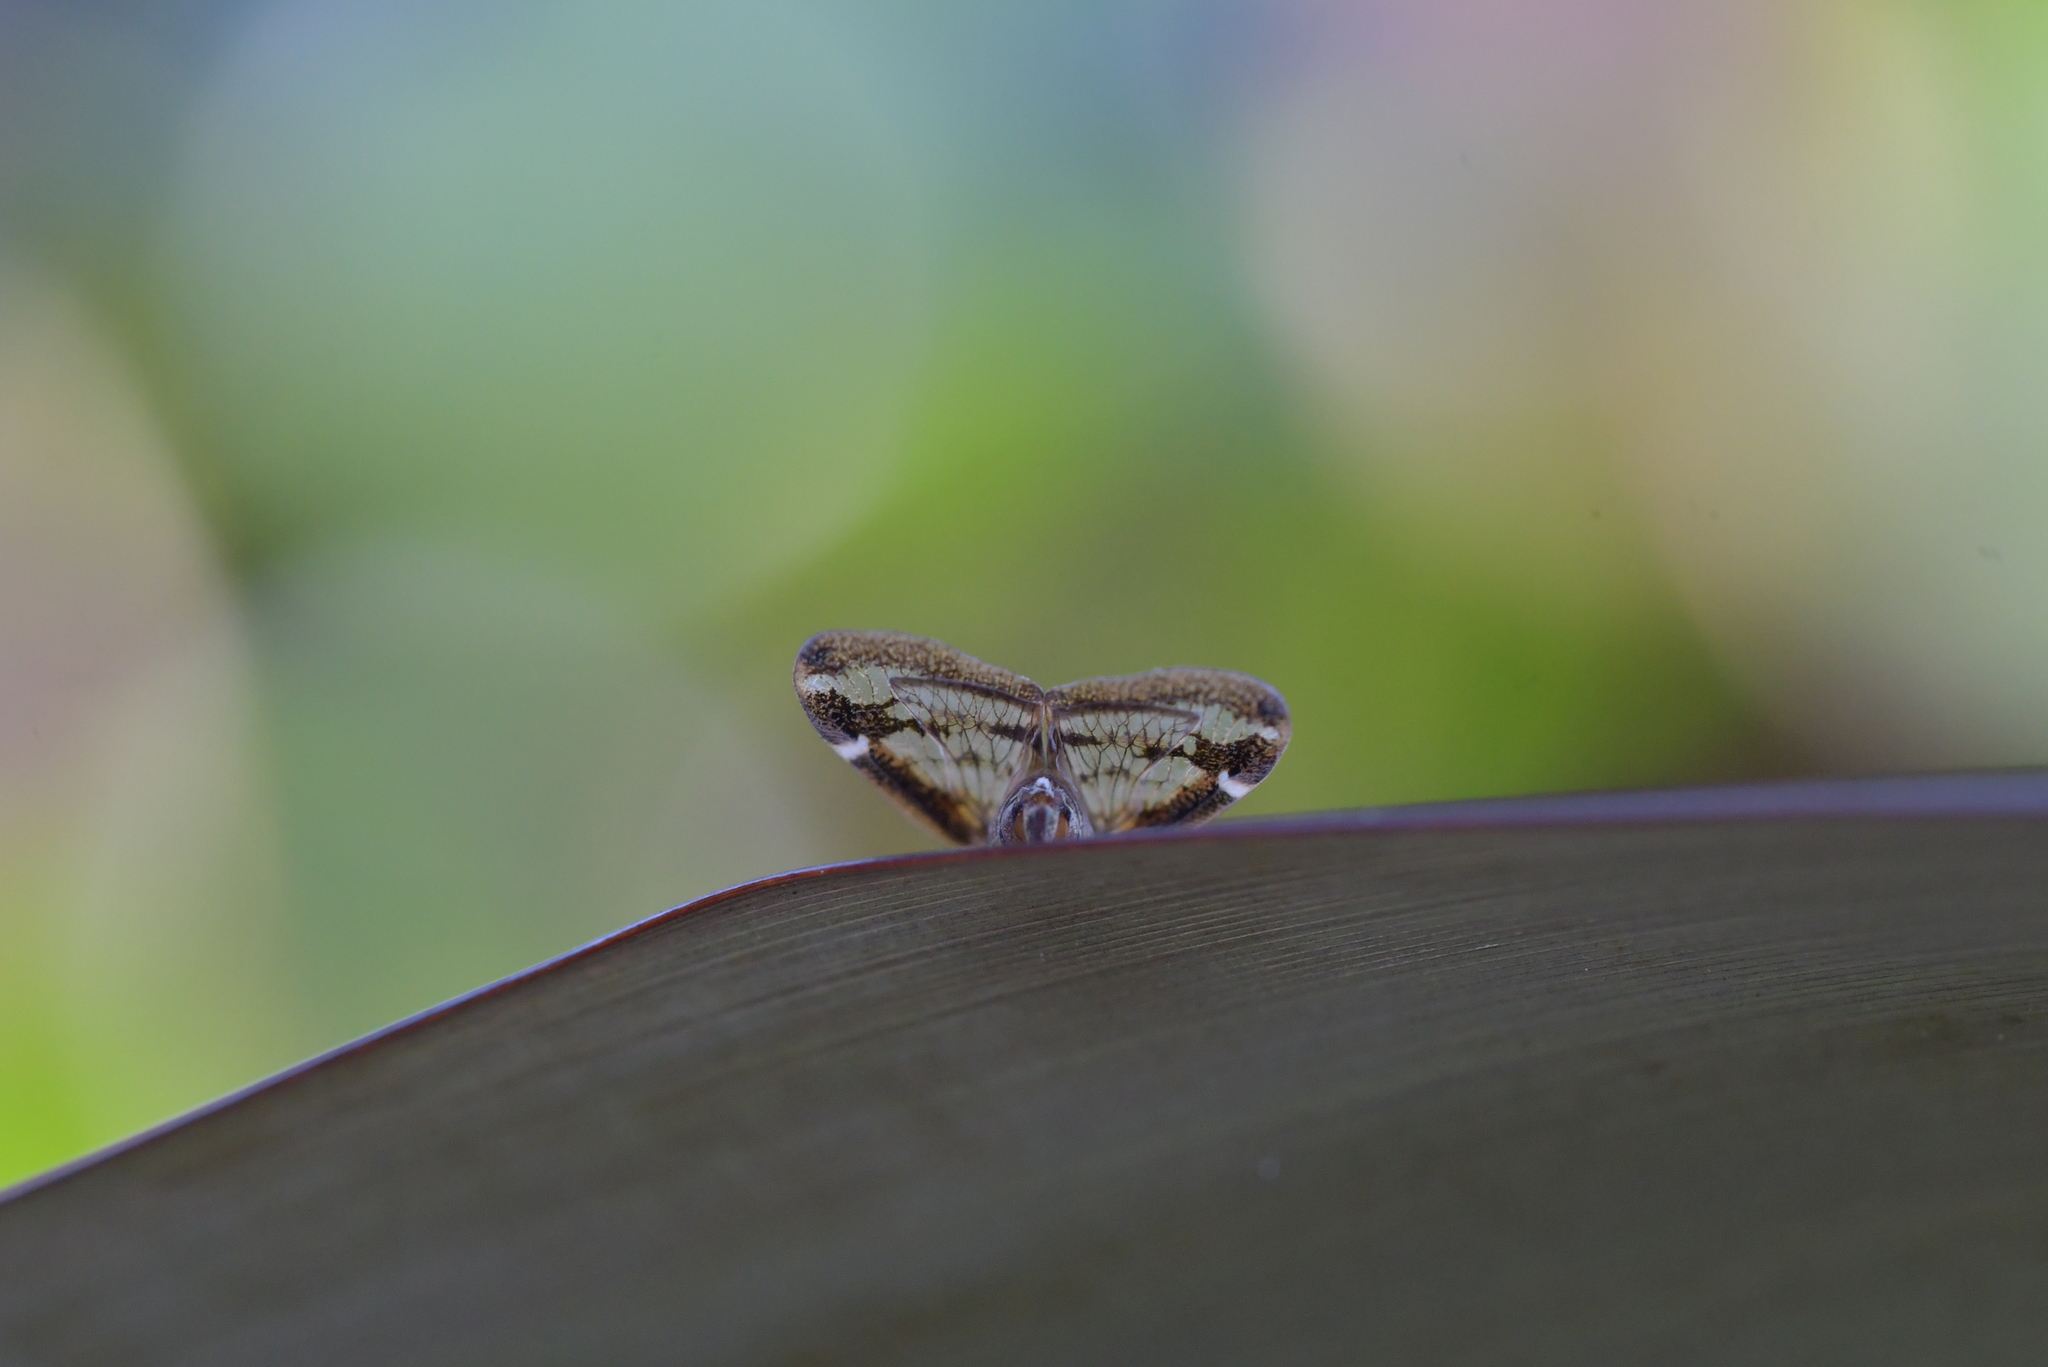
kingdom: Animalia
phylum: Arthropoda
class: Insecta
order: Hemiptera
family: Ricaniidae
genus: Scolypopa
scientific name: Scolypopa australis
